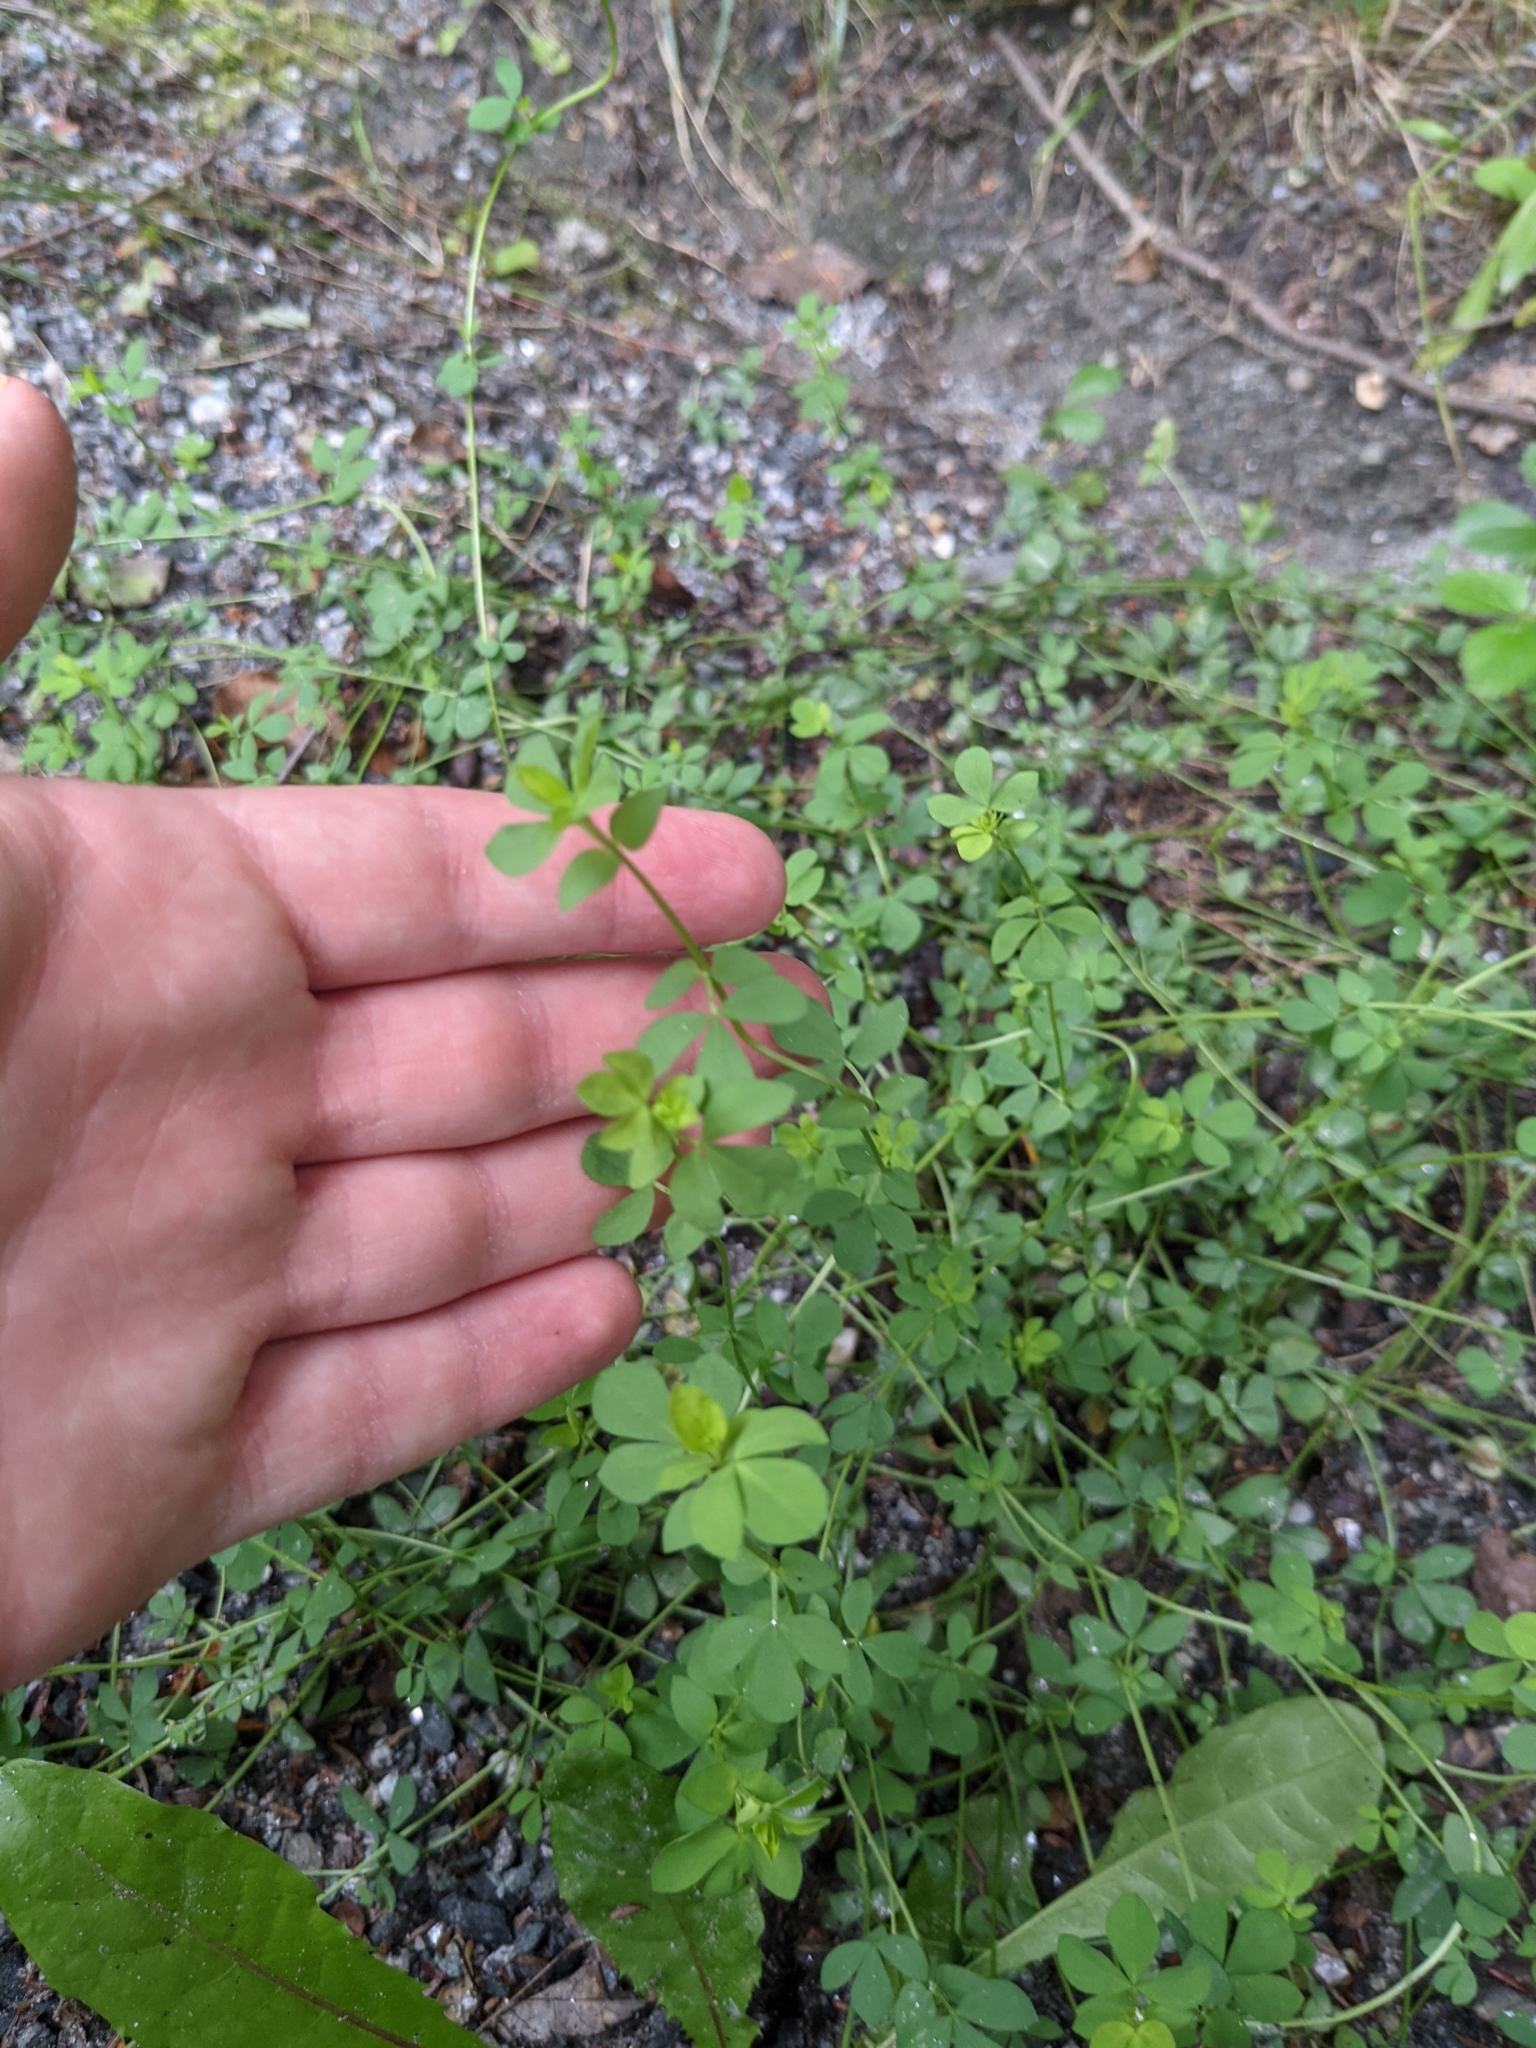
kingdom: Plantae
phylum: Tracheophyta
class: Magnoliopsida
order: Fabales
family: Fabaceae
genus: Lotus
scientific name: Lotus corniculatus
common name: Common bird's-foot-trefoil
